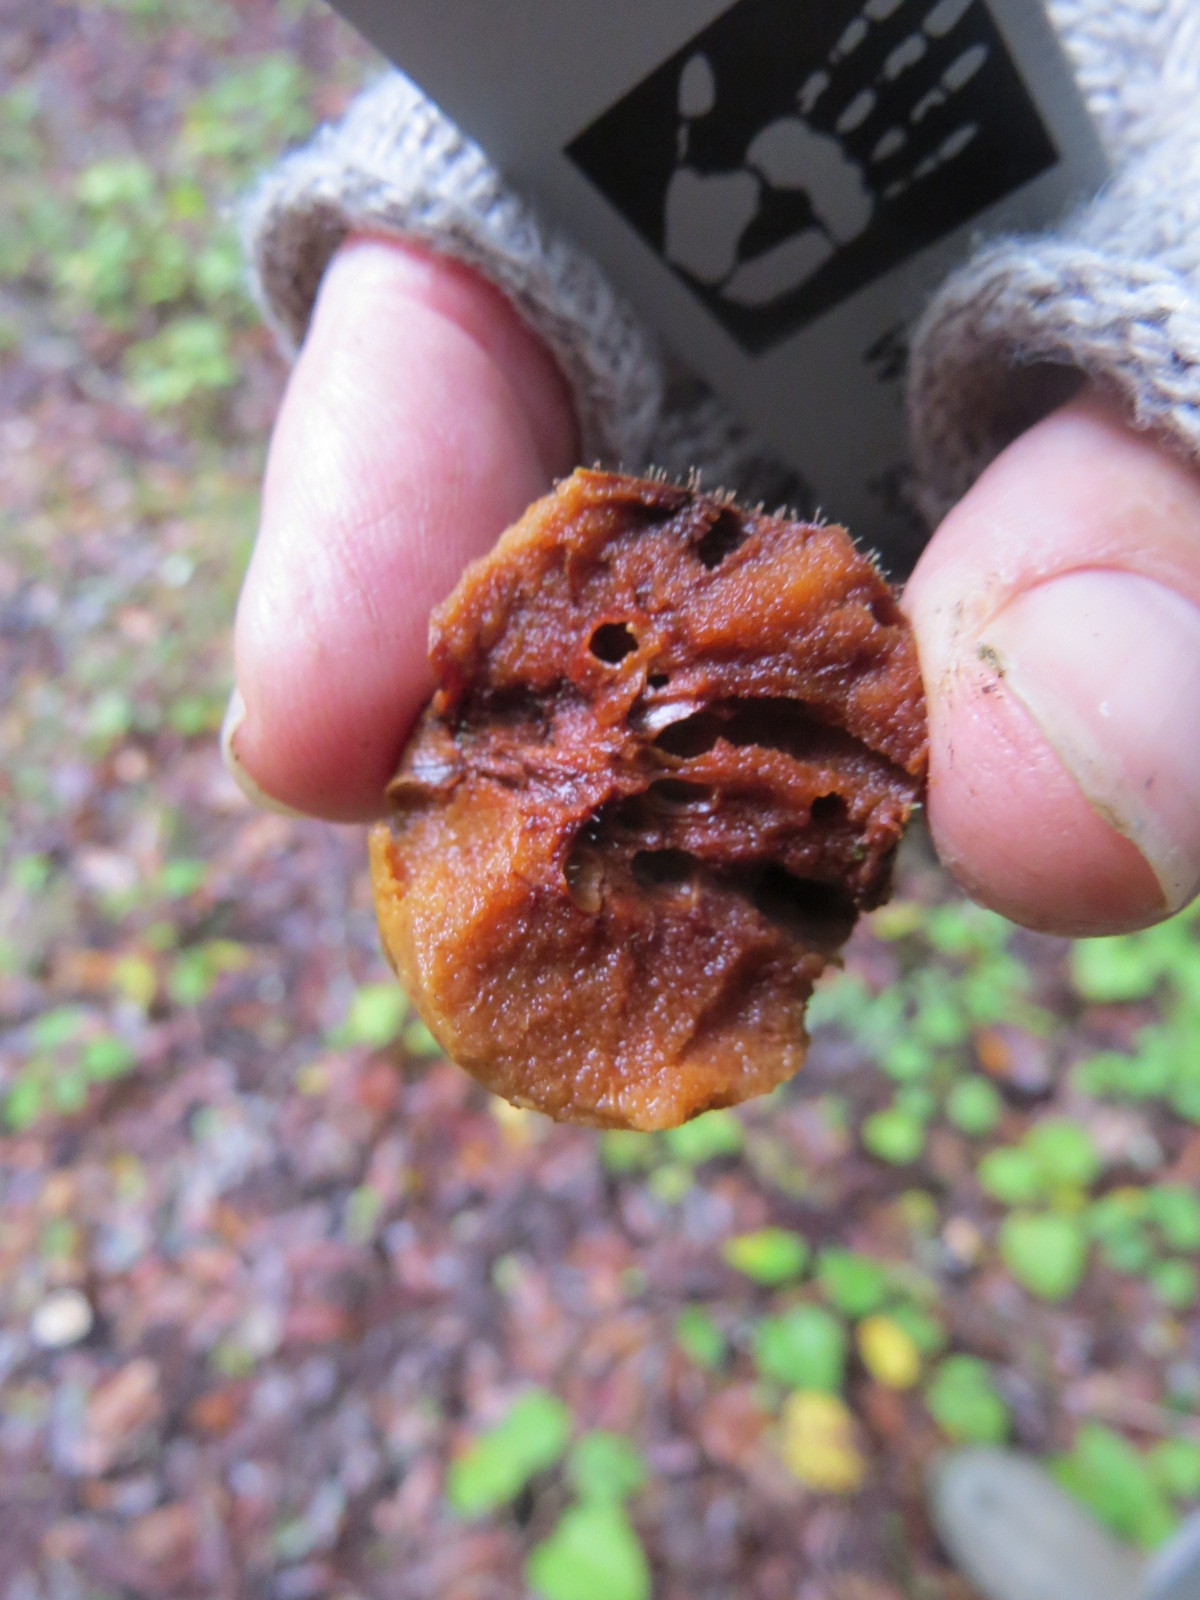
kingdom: Animalia
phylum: Arthropoda
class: Insecta
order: Hymenoptera
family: Cynipidae
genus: Amphibolips
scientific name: Amphibolips quercuspomiformis
